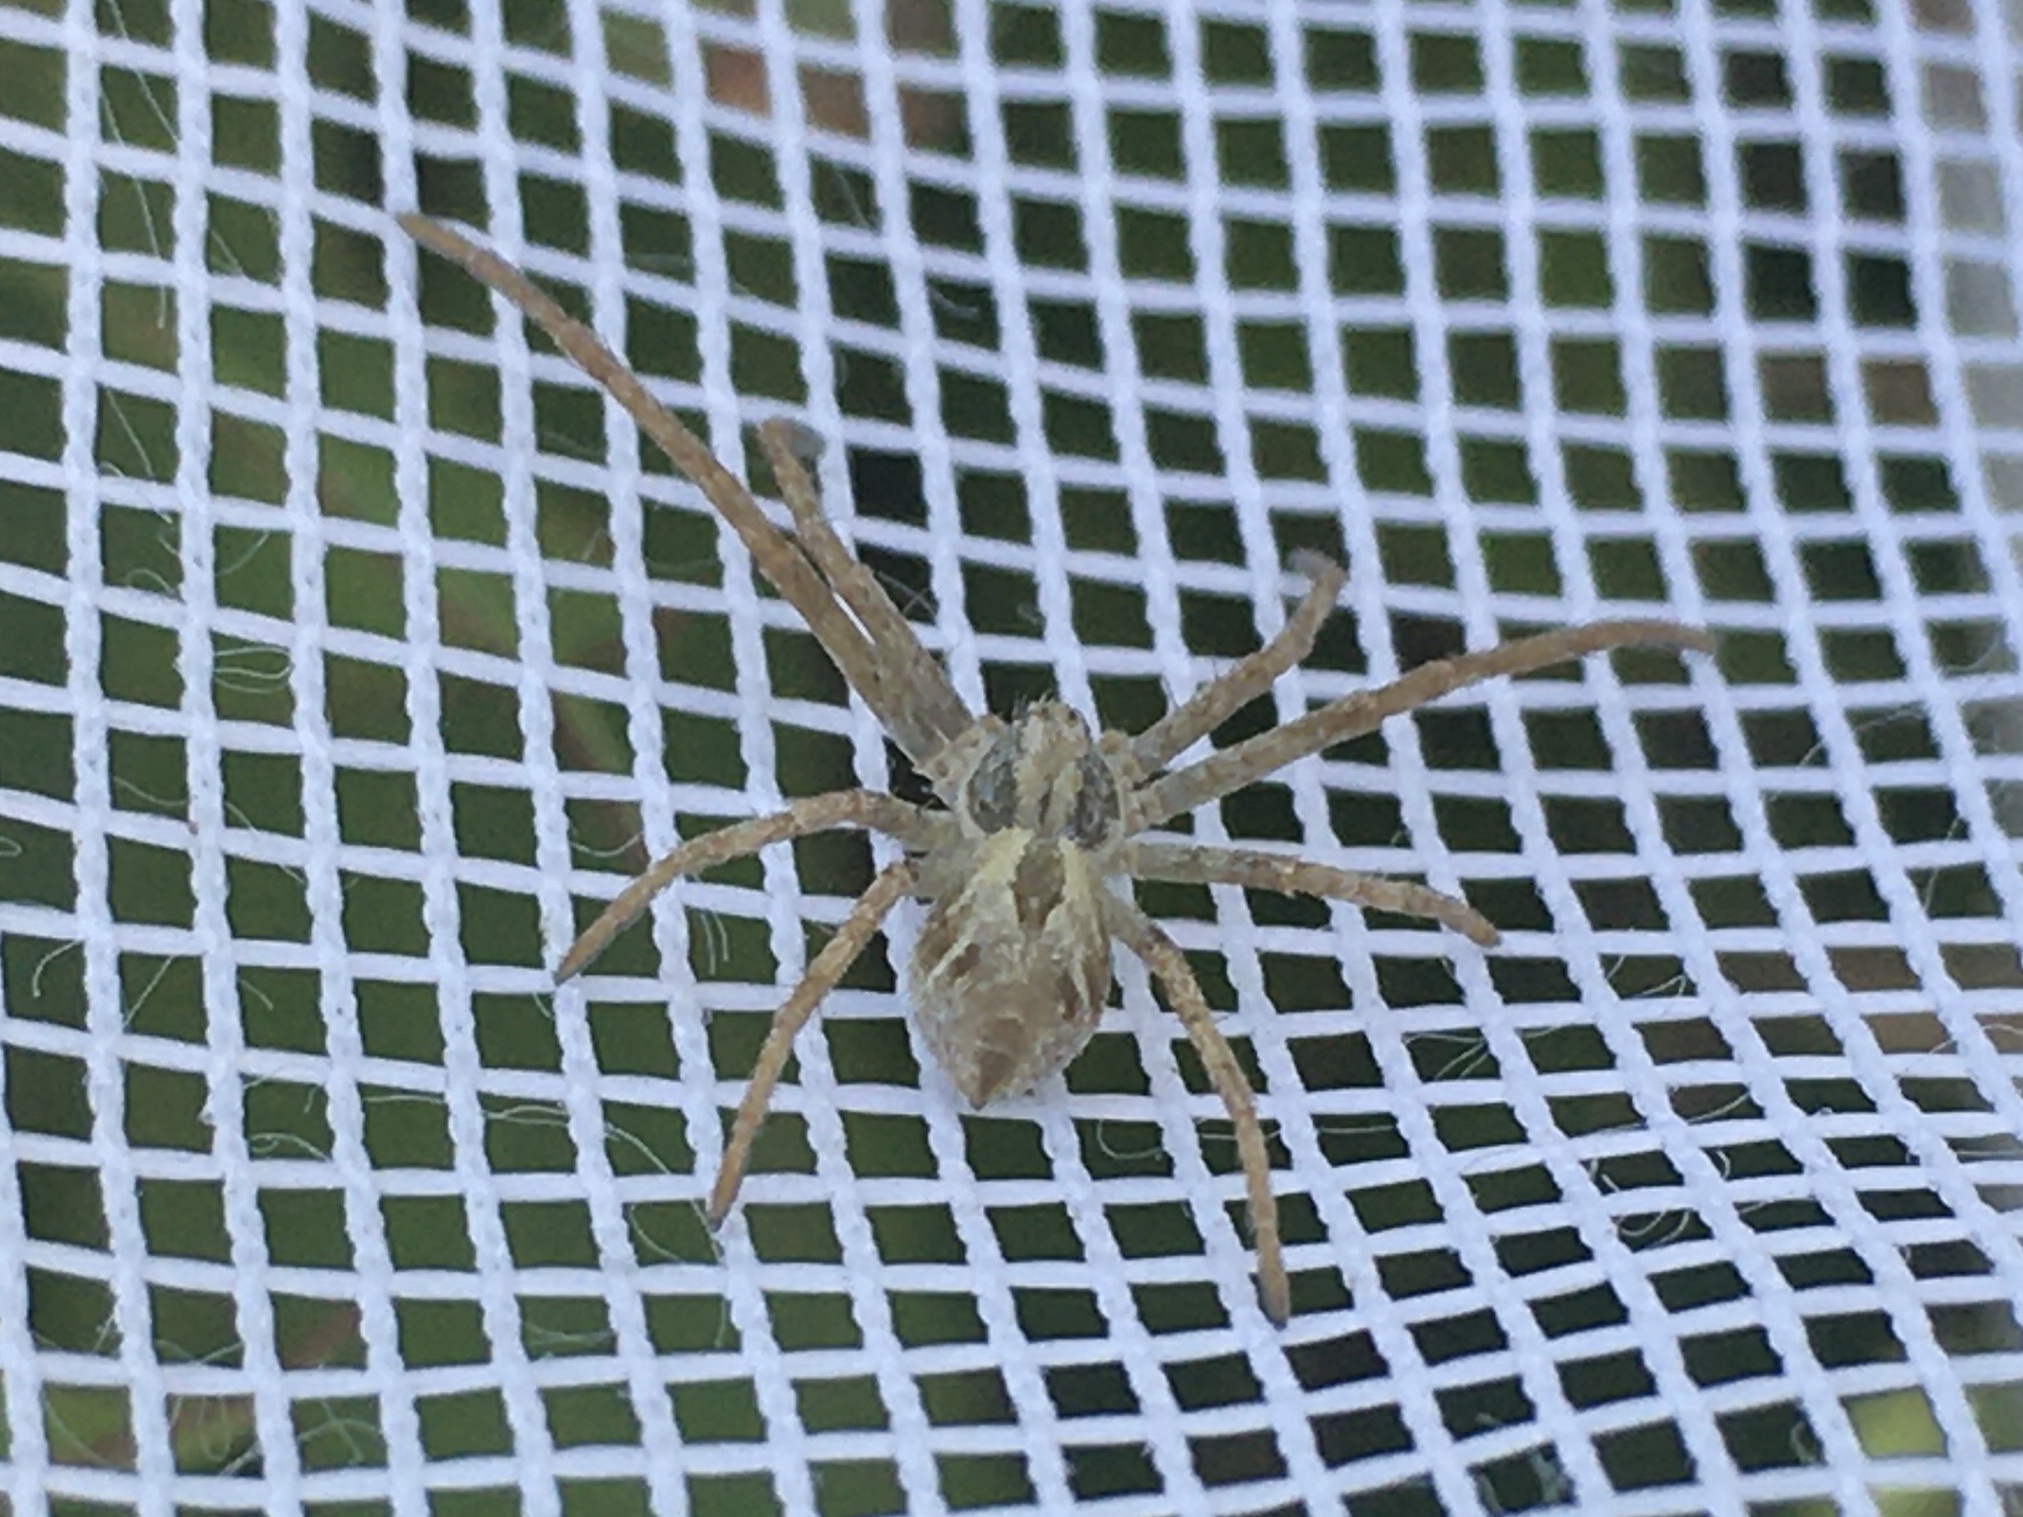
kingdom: Animalia
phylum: Arthropoda
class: Arachnida
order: Araneae
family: Philodromidae
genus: Rhysodromus
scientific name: Rhysodromus histrio
